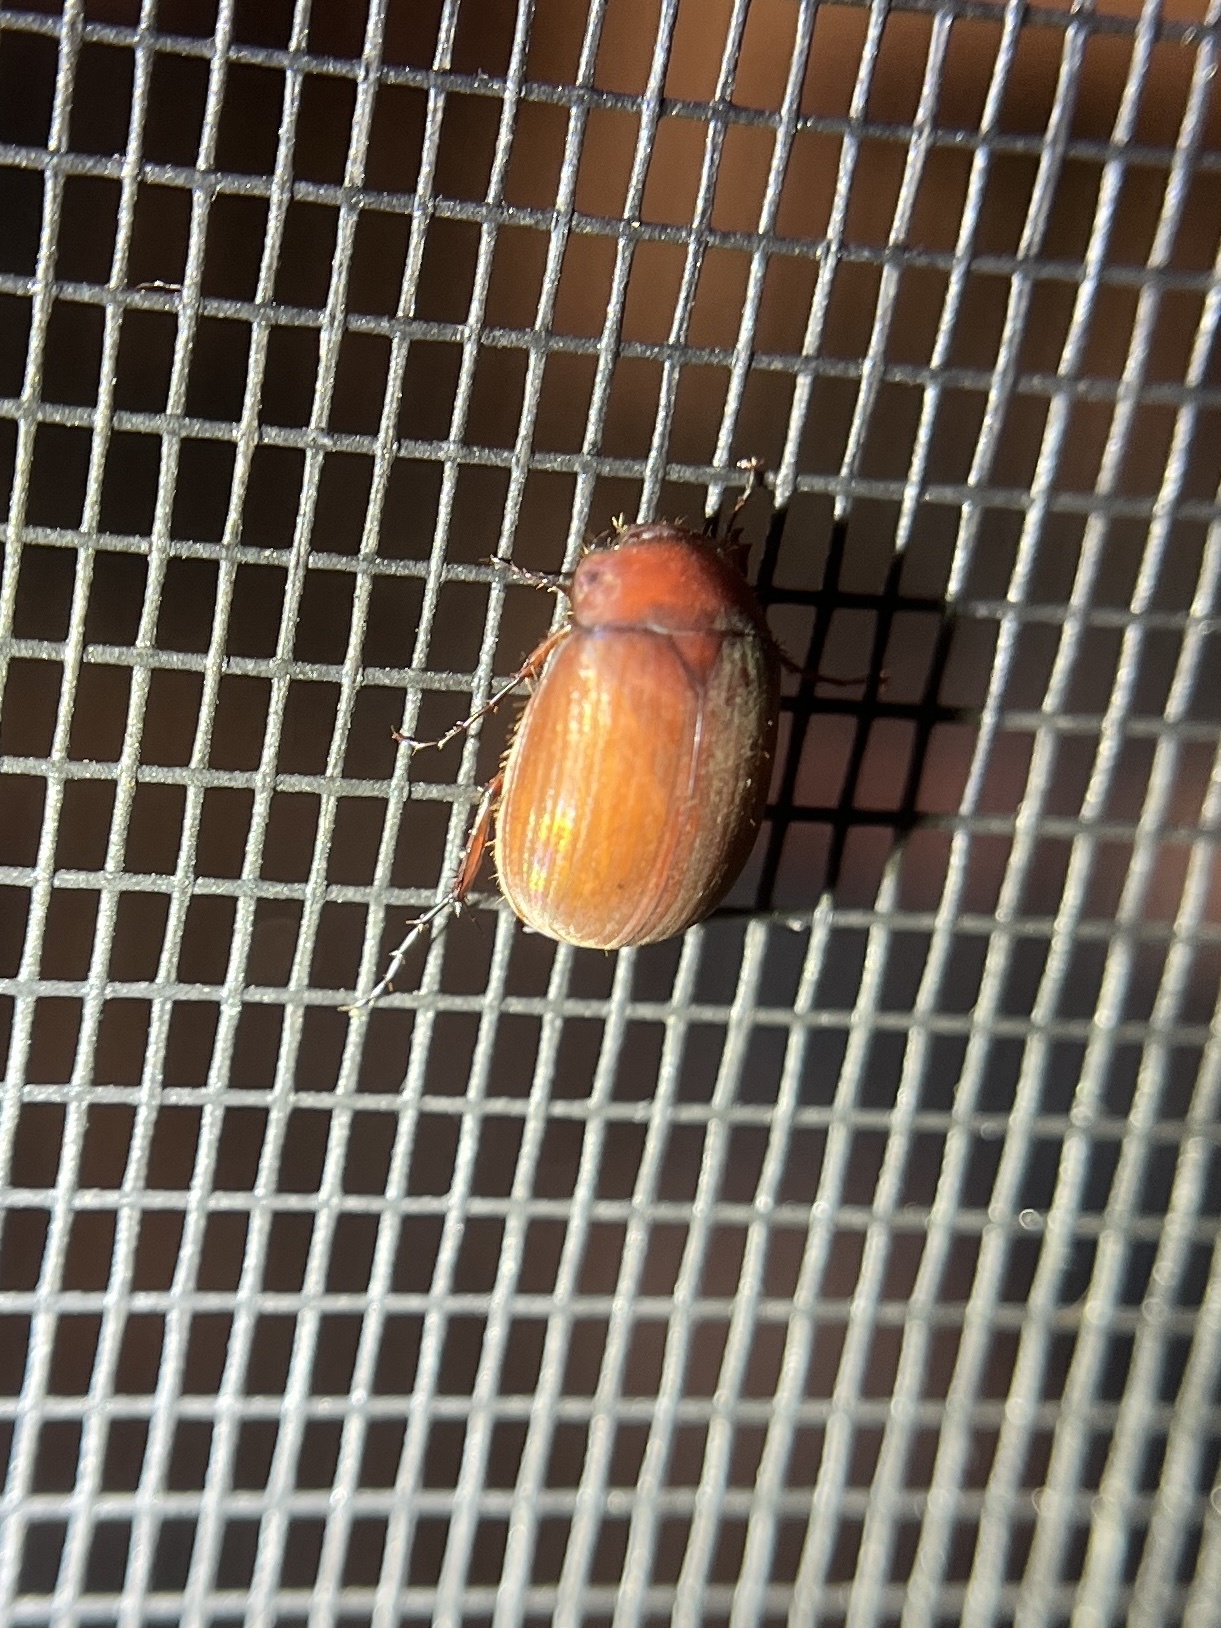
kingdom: Animalia
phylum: Arthropoda
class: Insecta
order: Coleoptera
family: Scarabaeidae
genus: Maladera
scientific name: Maladera formosae
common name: Asiatic garden beetle
